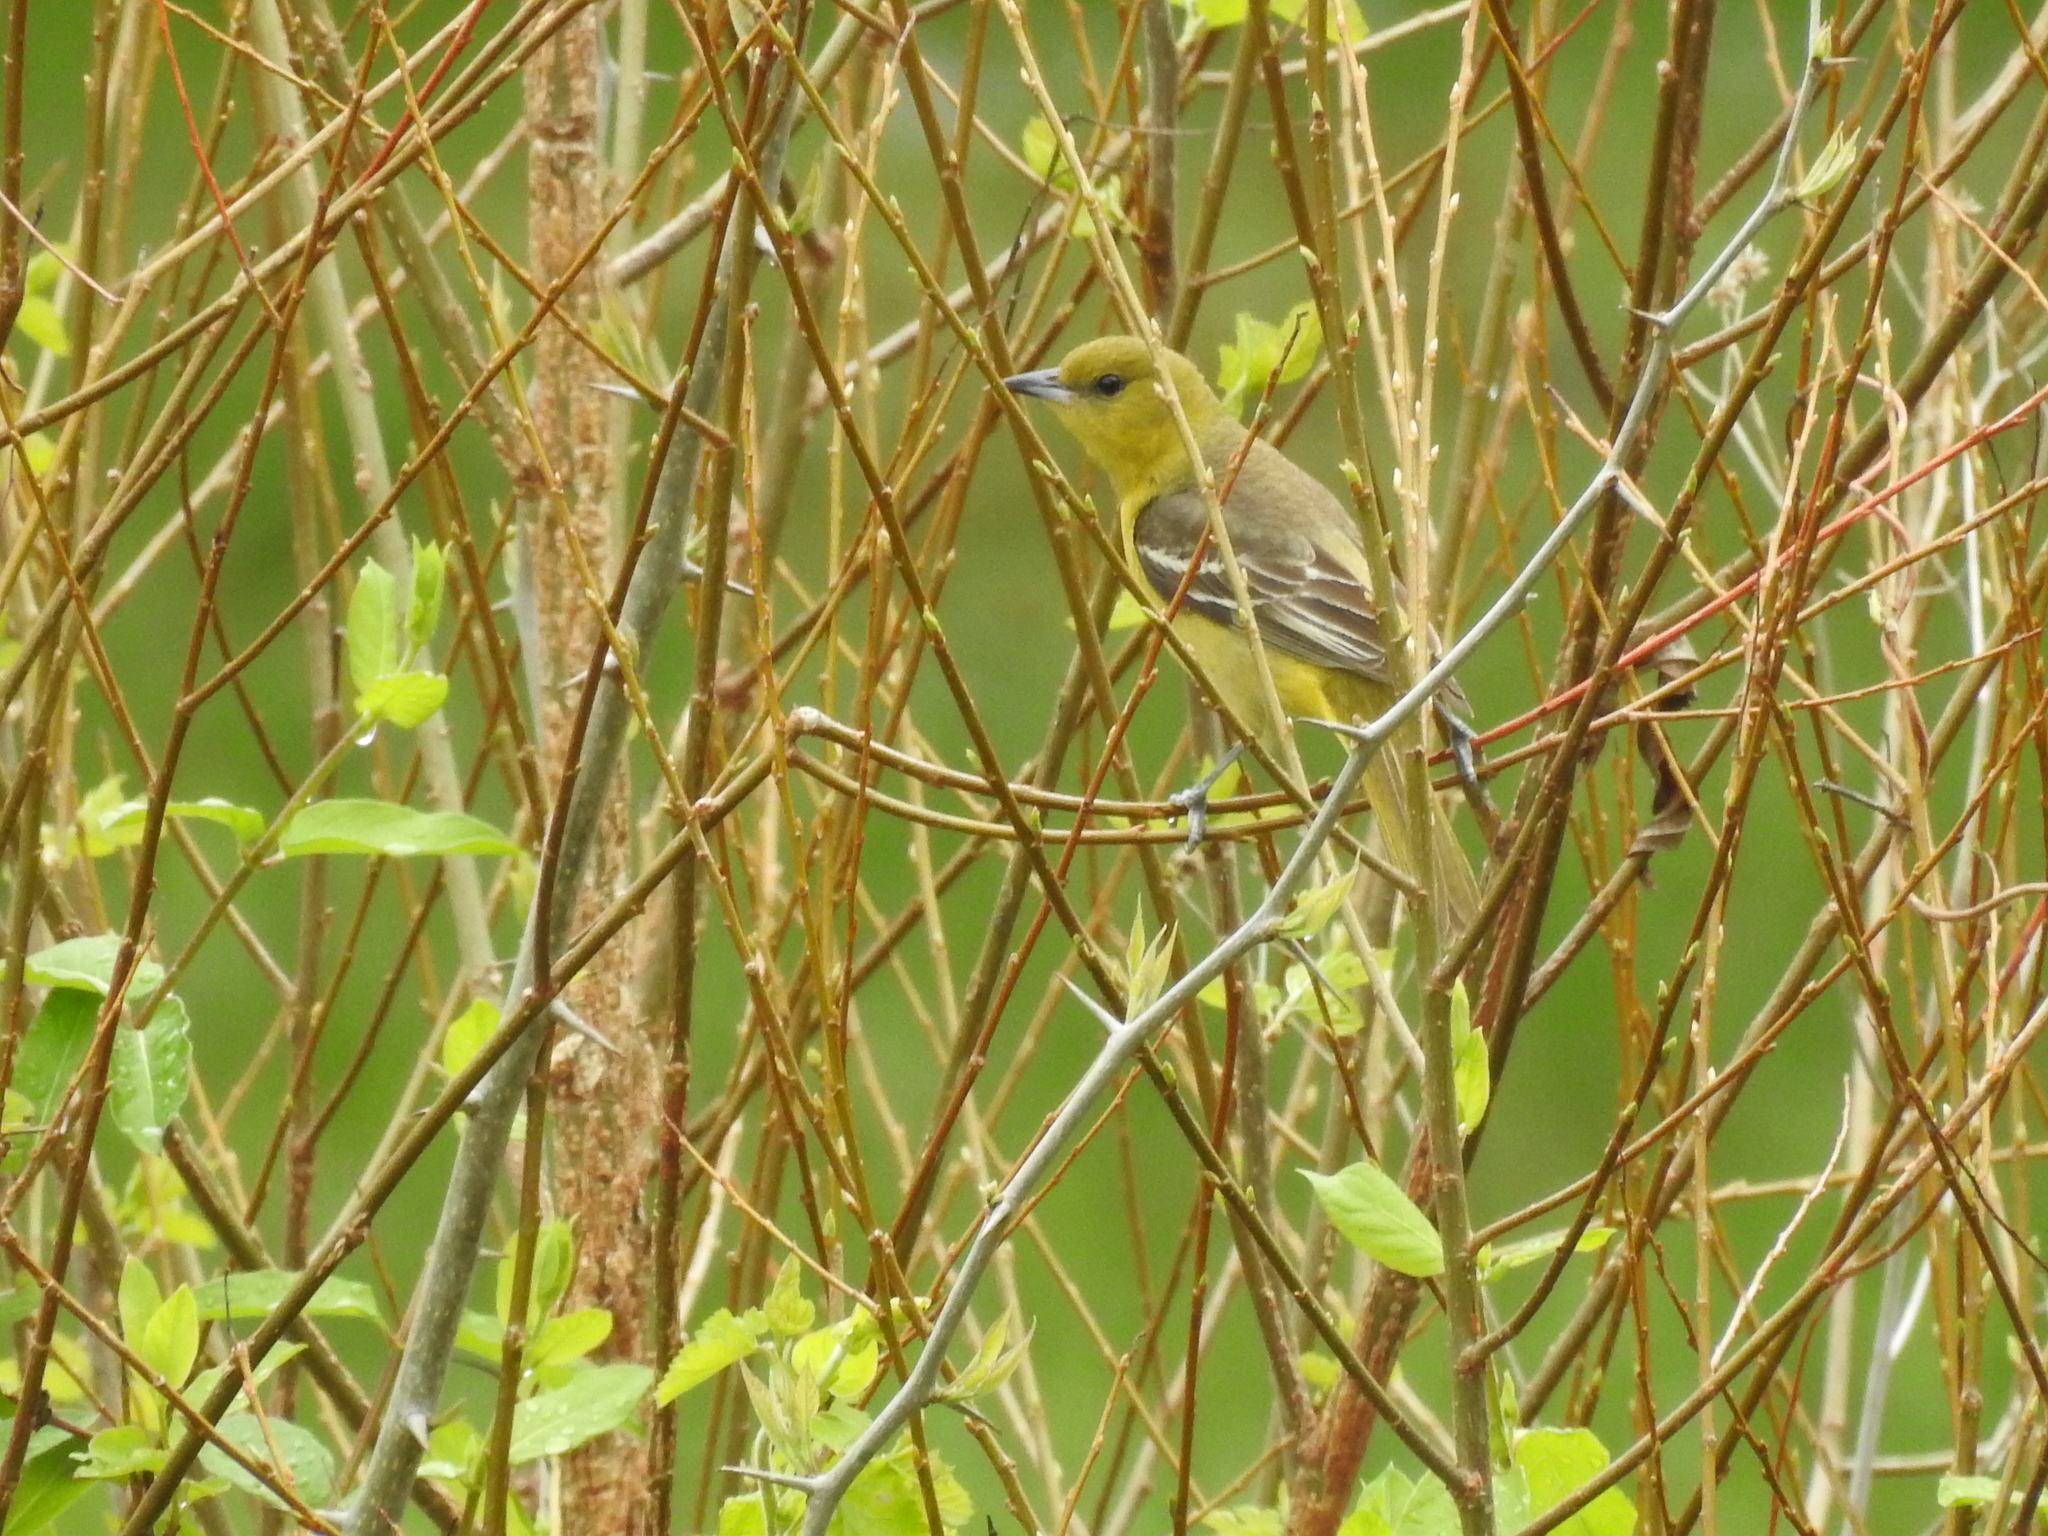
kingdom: Animalia
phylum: Chordata
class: Aves
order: Passeriformes
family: Icteridae
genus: Icterus
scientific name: Icterus spurius
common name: Orchard oriole
